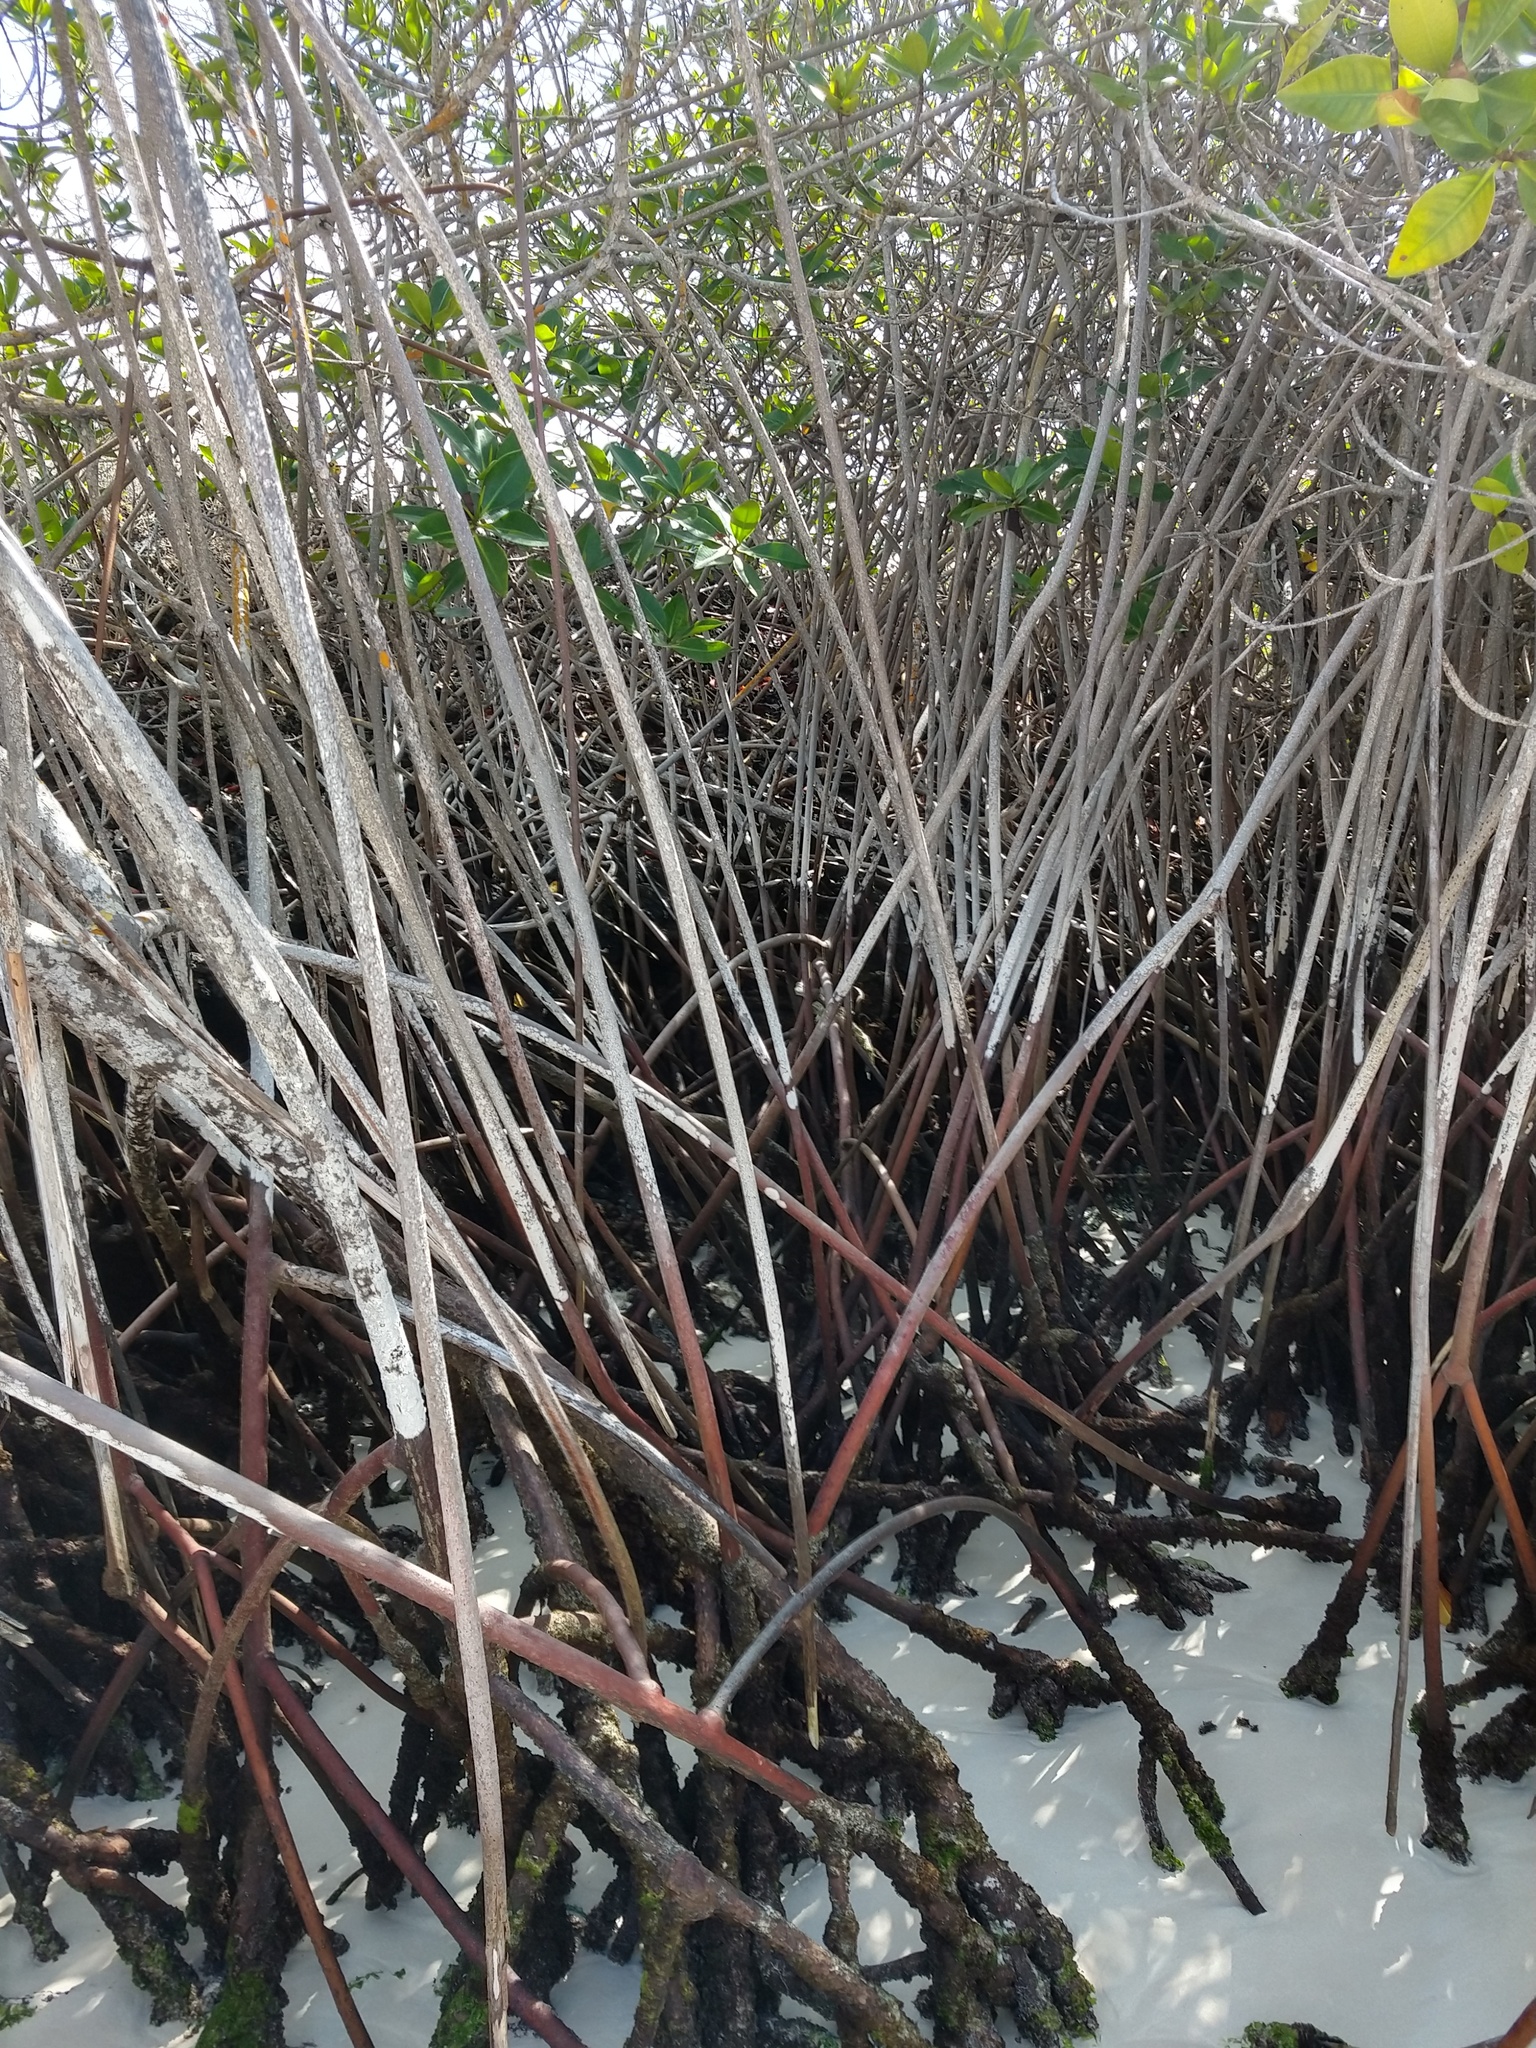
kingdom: Plantae
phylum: Tracheophyta
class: Magnoliopsida
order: Malpighiales
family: Rhizophoraceae
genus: Rhizophora
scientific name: Rhizophora mangle
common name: Red mangrove
